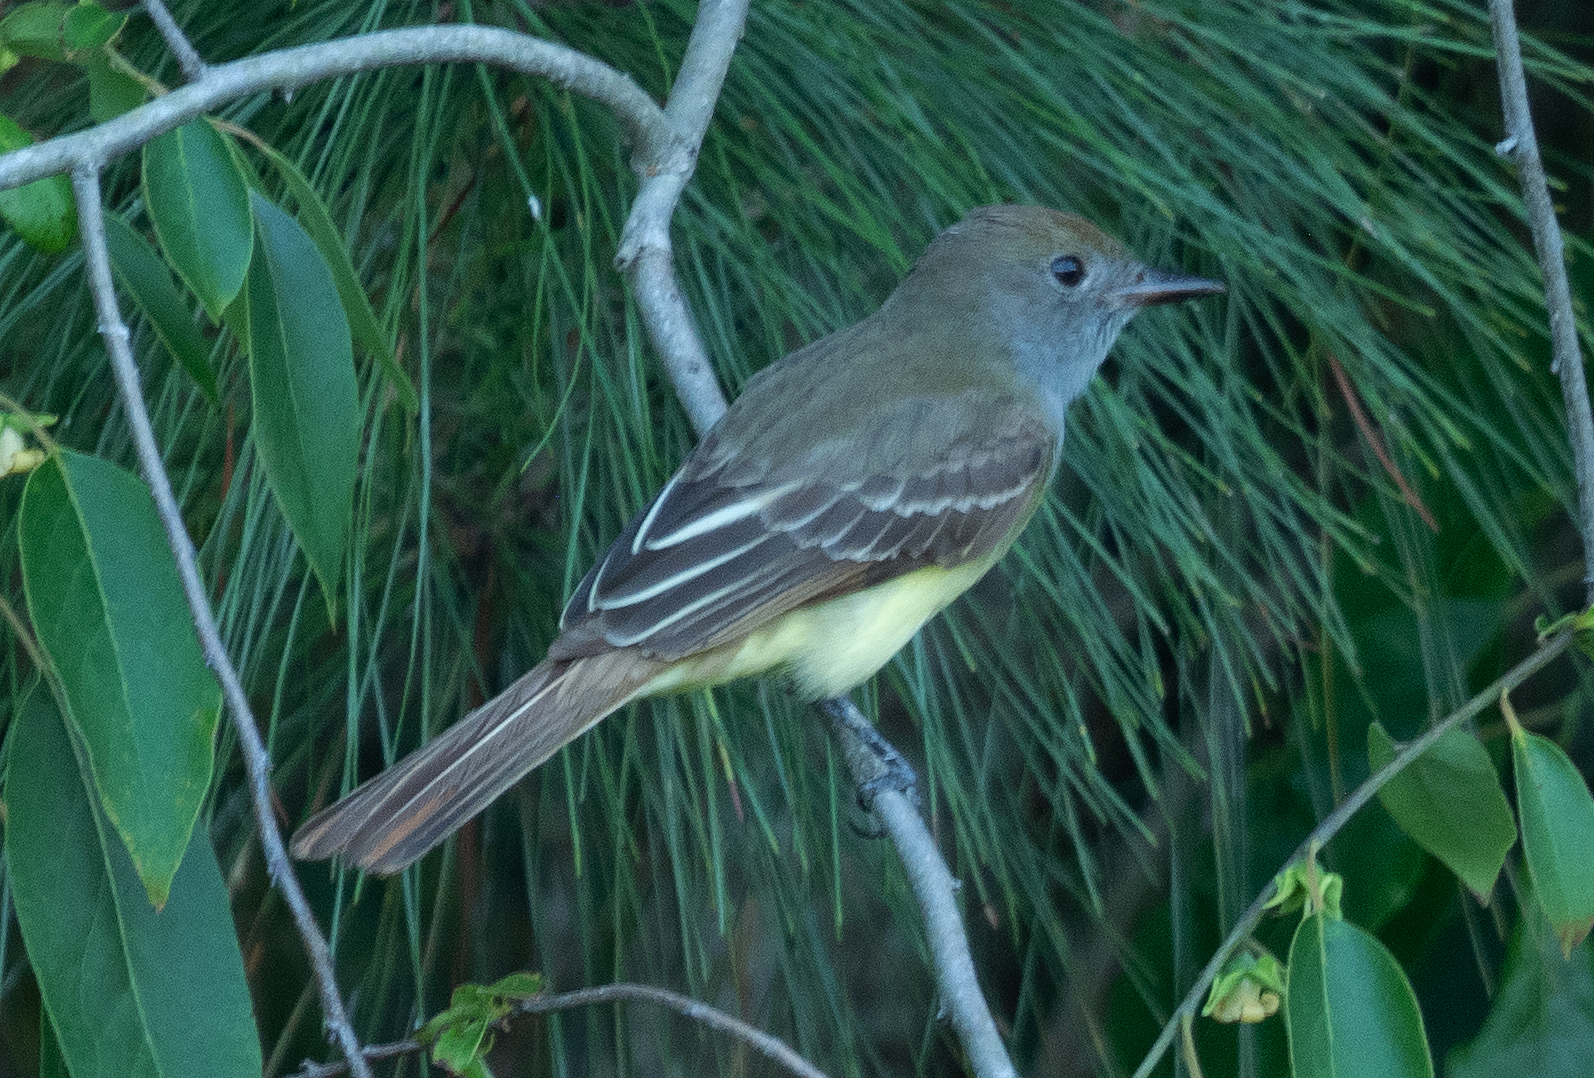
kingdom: Animalia
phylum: Chordata
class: Aves
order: Passeriformes
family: Tyrannidae
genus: Myiarchus
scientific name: Myiarchus crinitus
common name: Great crested flycatcher
